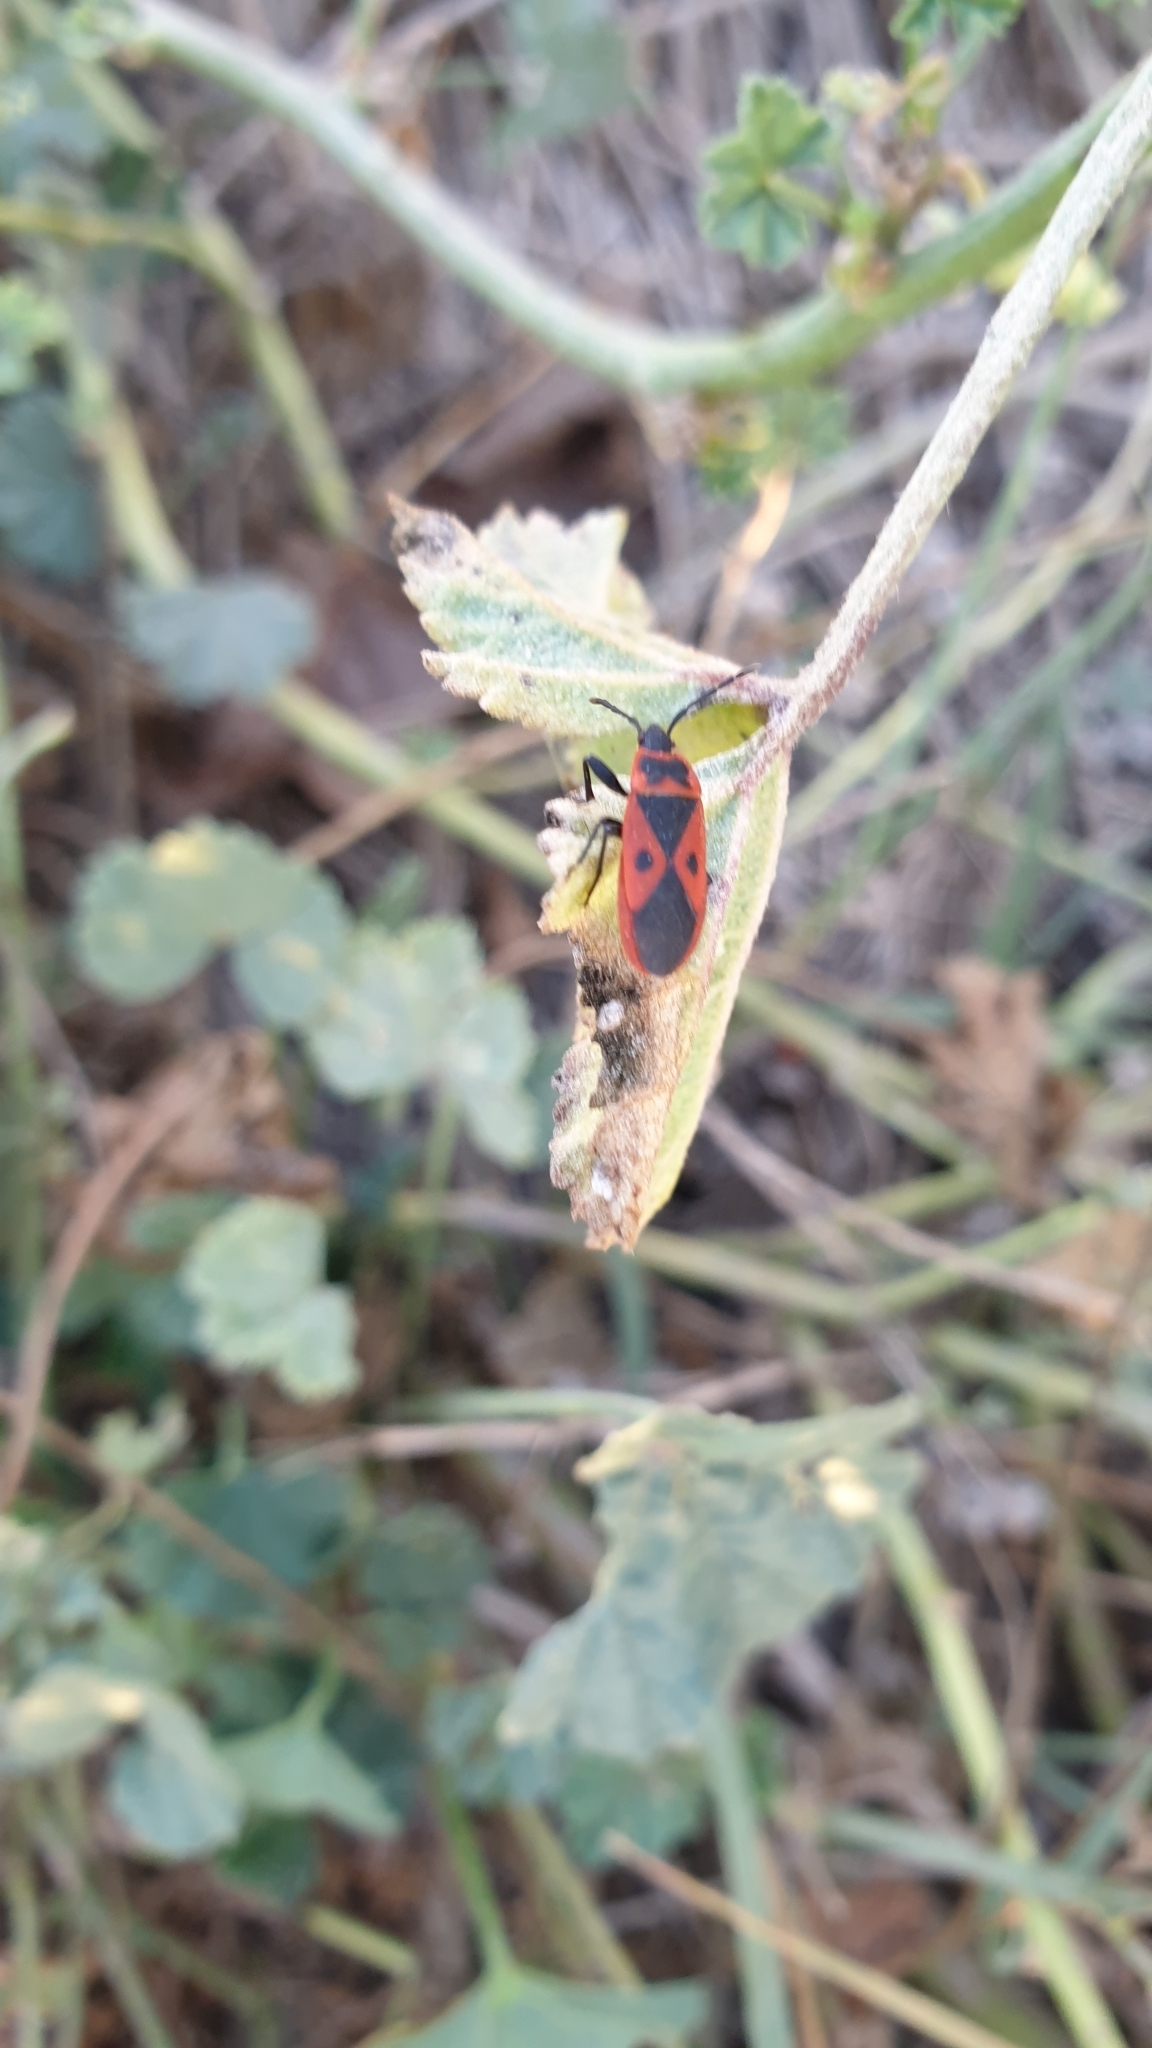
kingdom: Animalia
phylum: Arthropoda
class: Insecta
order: Hemiptera
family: Pyrrhocoridae
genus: Scantius
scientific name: Scantius aegyptius
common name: Red bug
